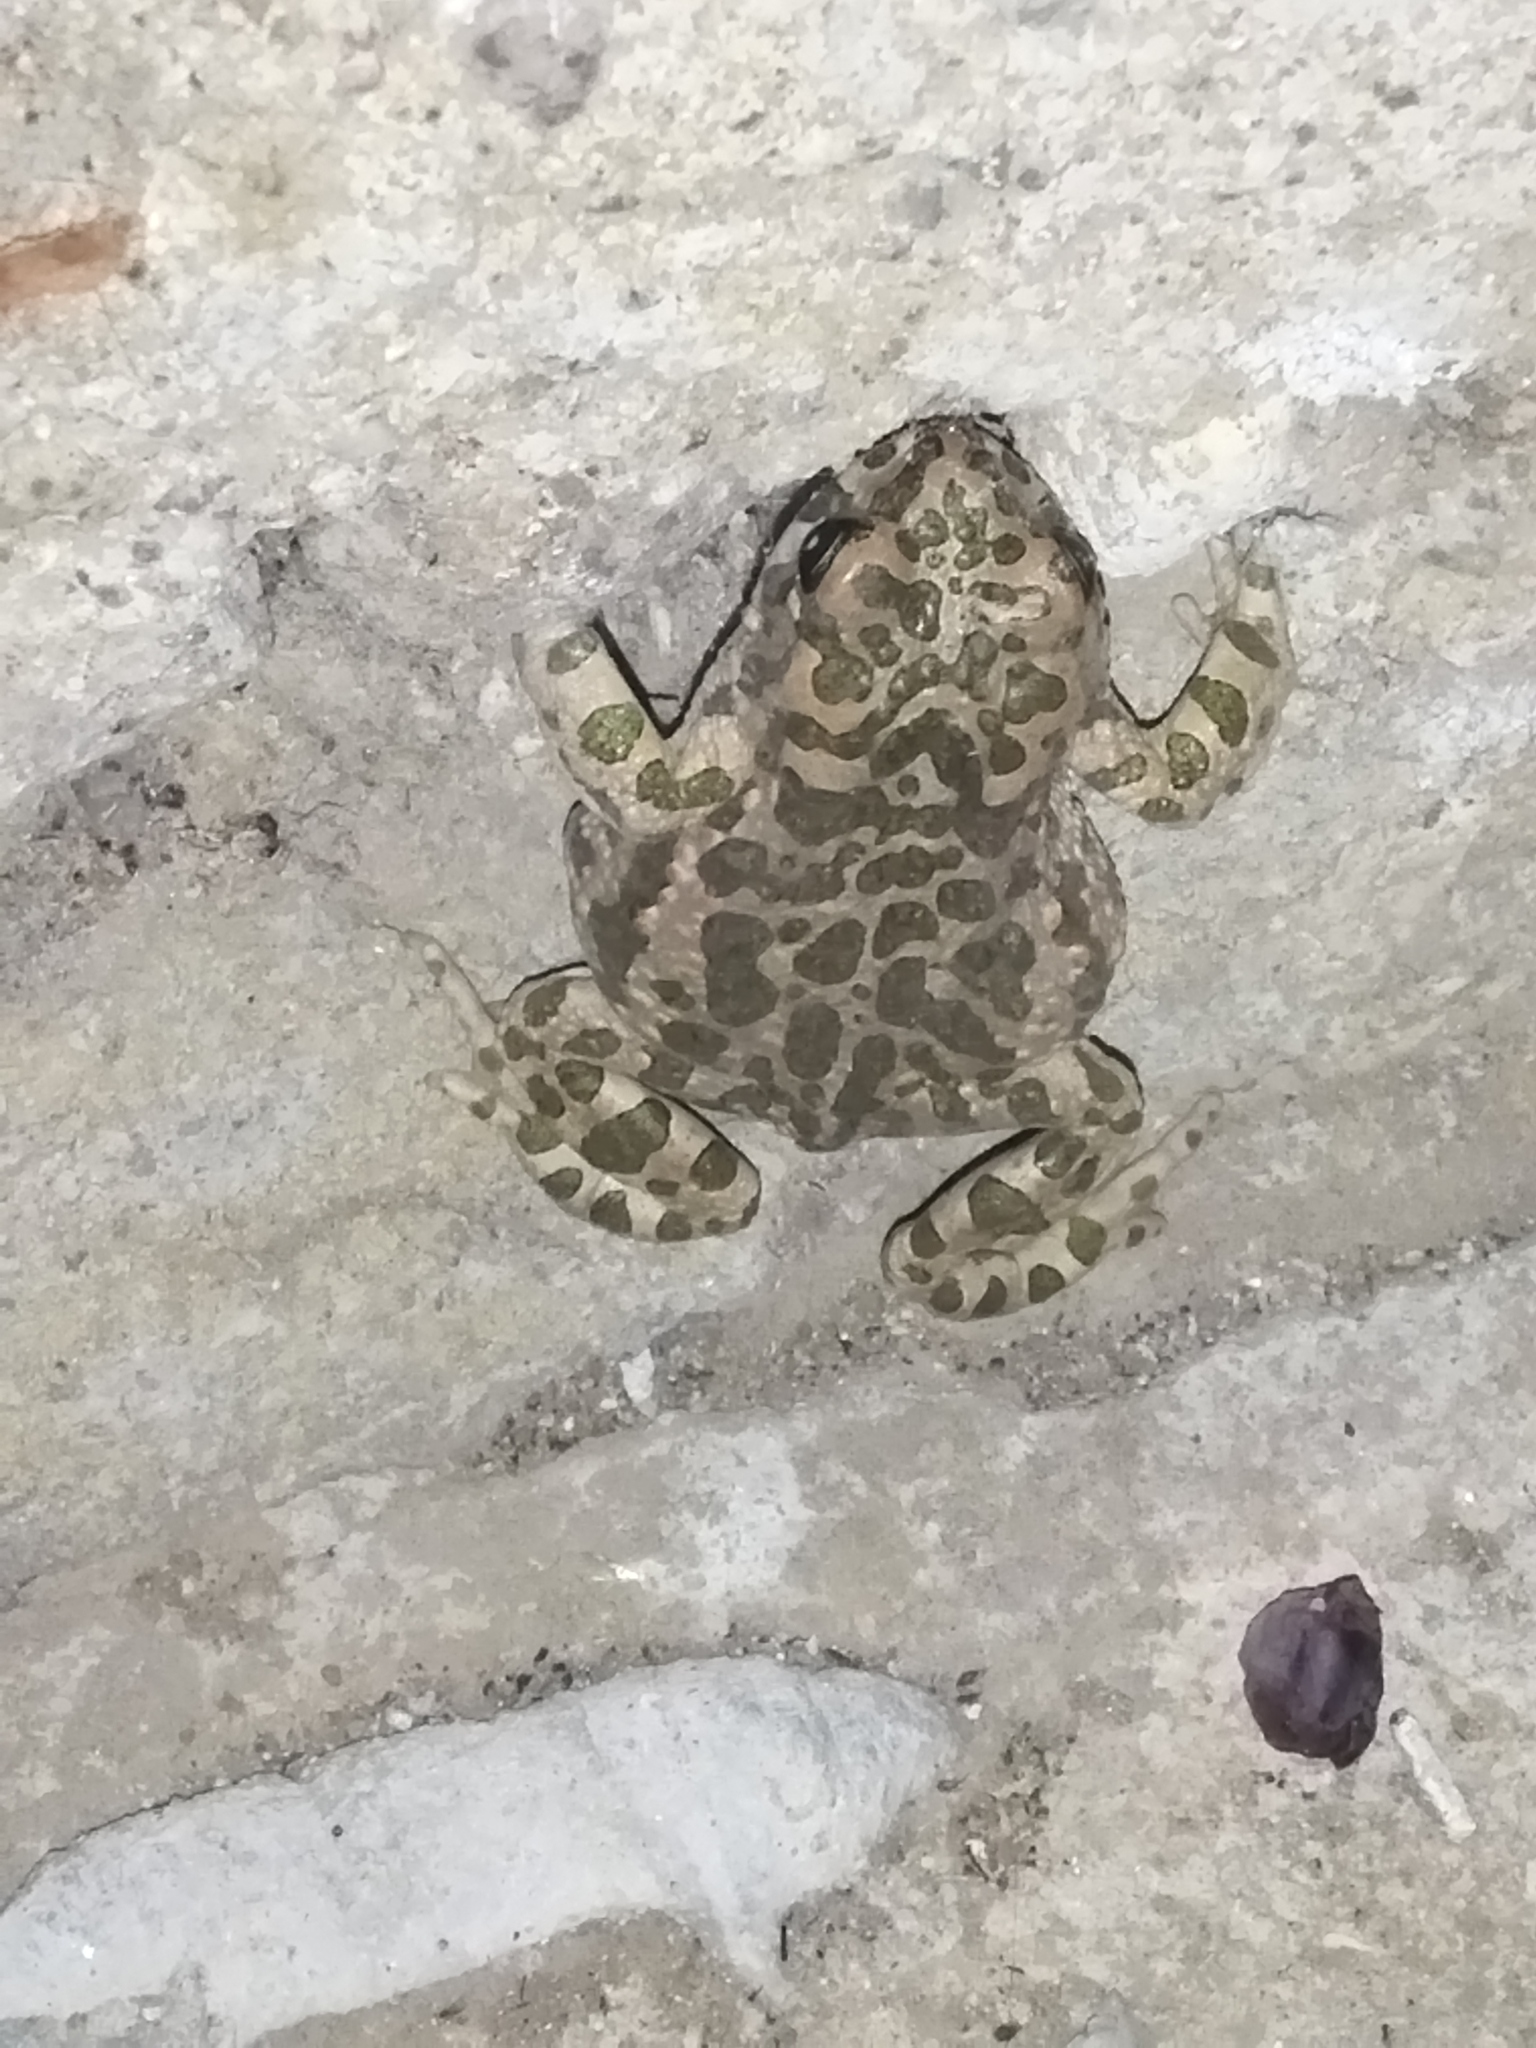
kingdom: Animalia
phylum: Chordata
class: Amphibia
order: Anura
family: Bufonidae
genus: Bufotes
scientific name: Bufotes viridis
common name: European green toad
